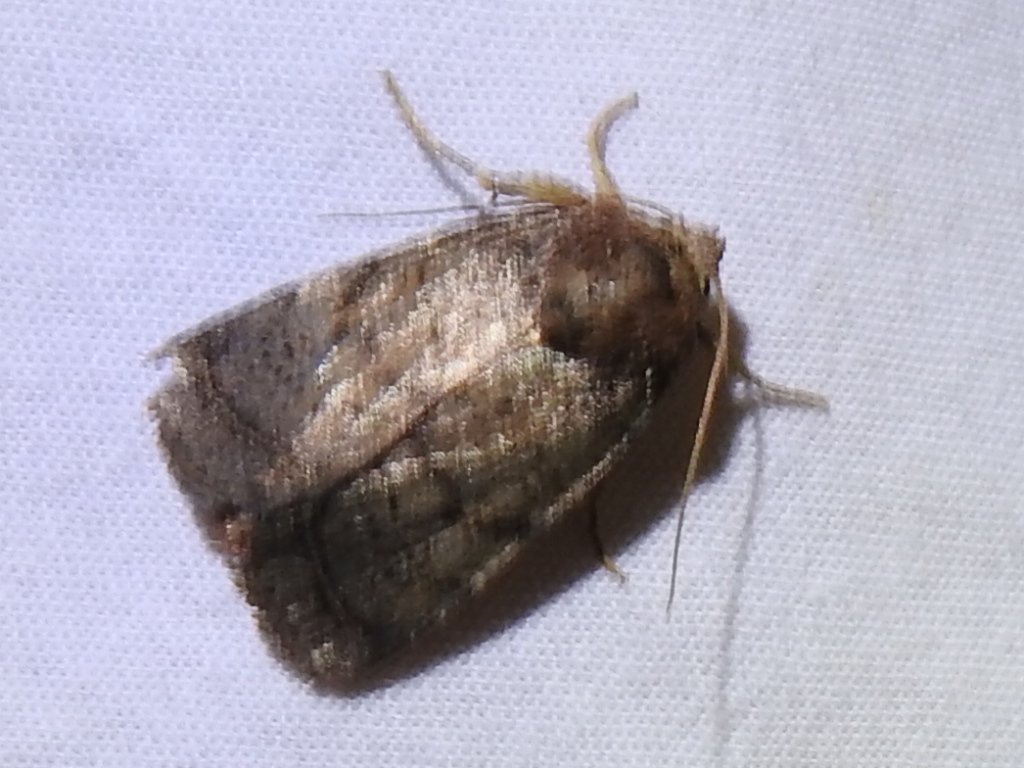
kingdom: Animalia
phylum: Arthropoda
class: Insecta
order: Lepidoptera
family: Noctuidae
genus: Orthodes
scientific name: Orthodes furtiva
